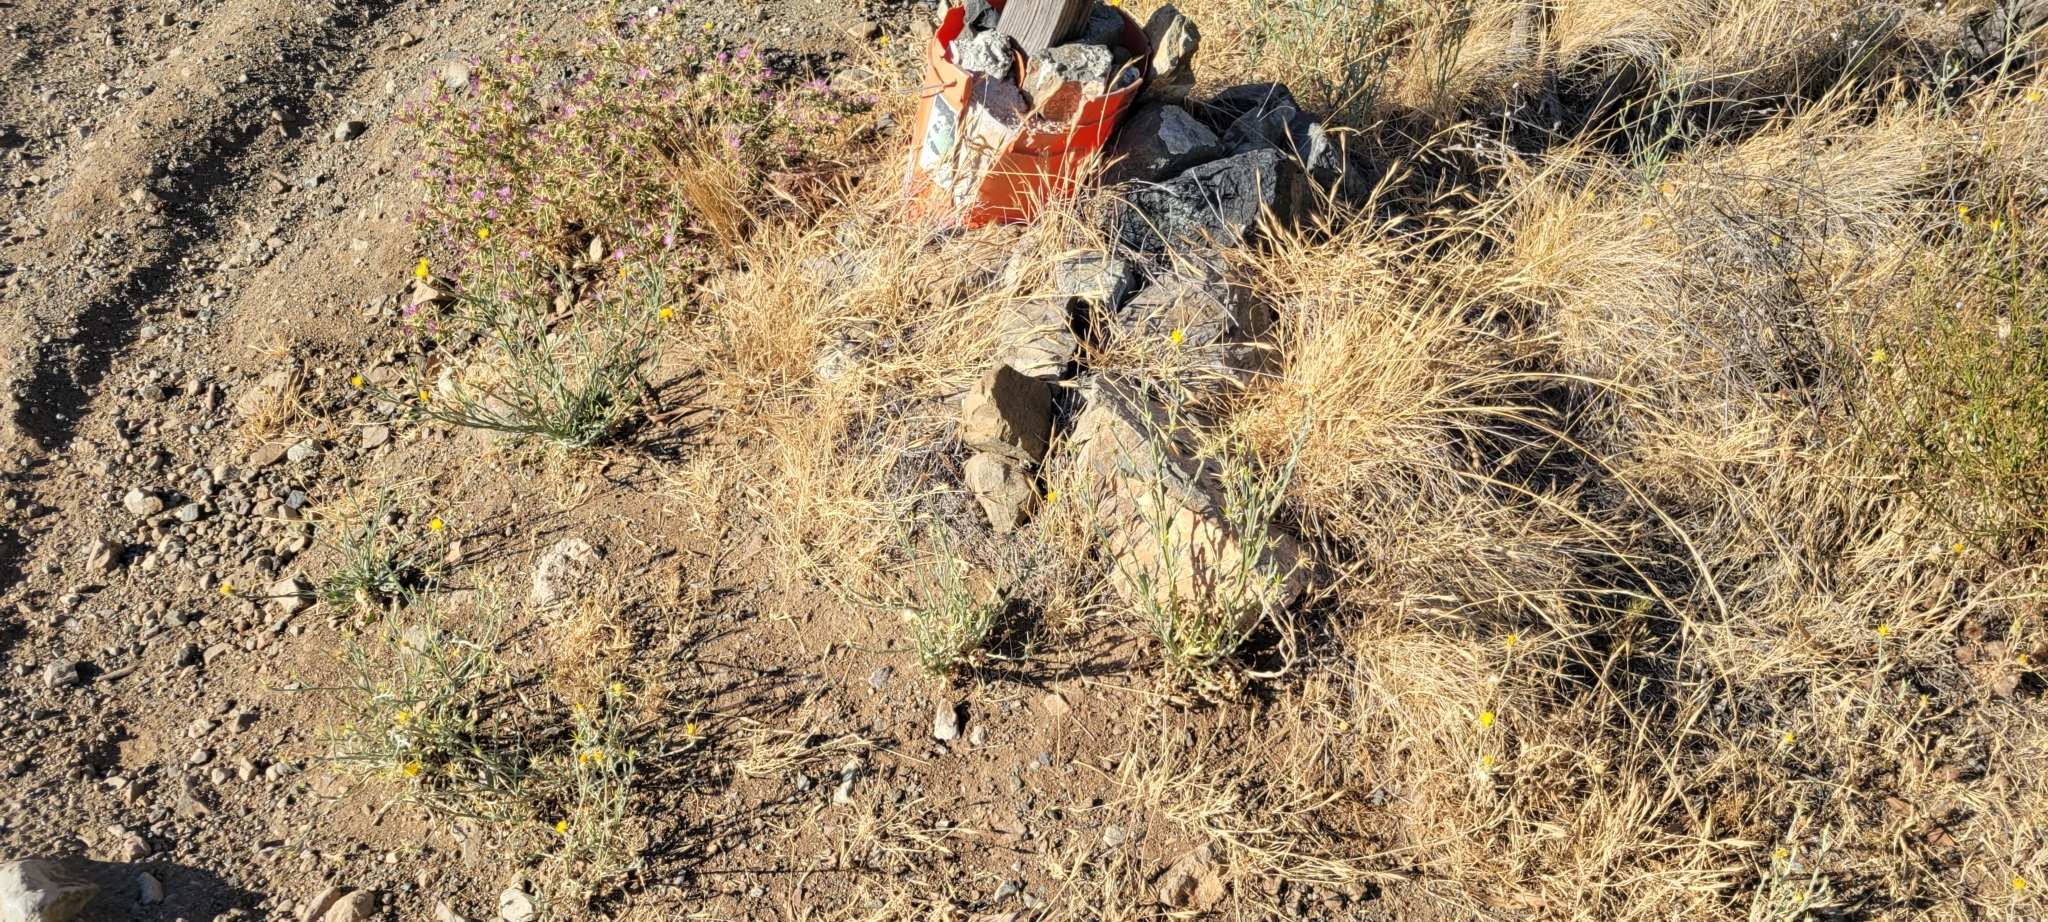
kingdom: Plantae
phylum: Tracheophyta
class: Magnoliopsida
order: Asterales
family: Asteraceae
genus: Centaurea
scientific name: Centaurea solstitialis
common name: Yellow star-thistle
